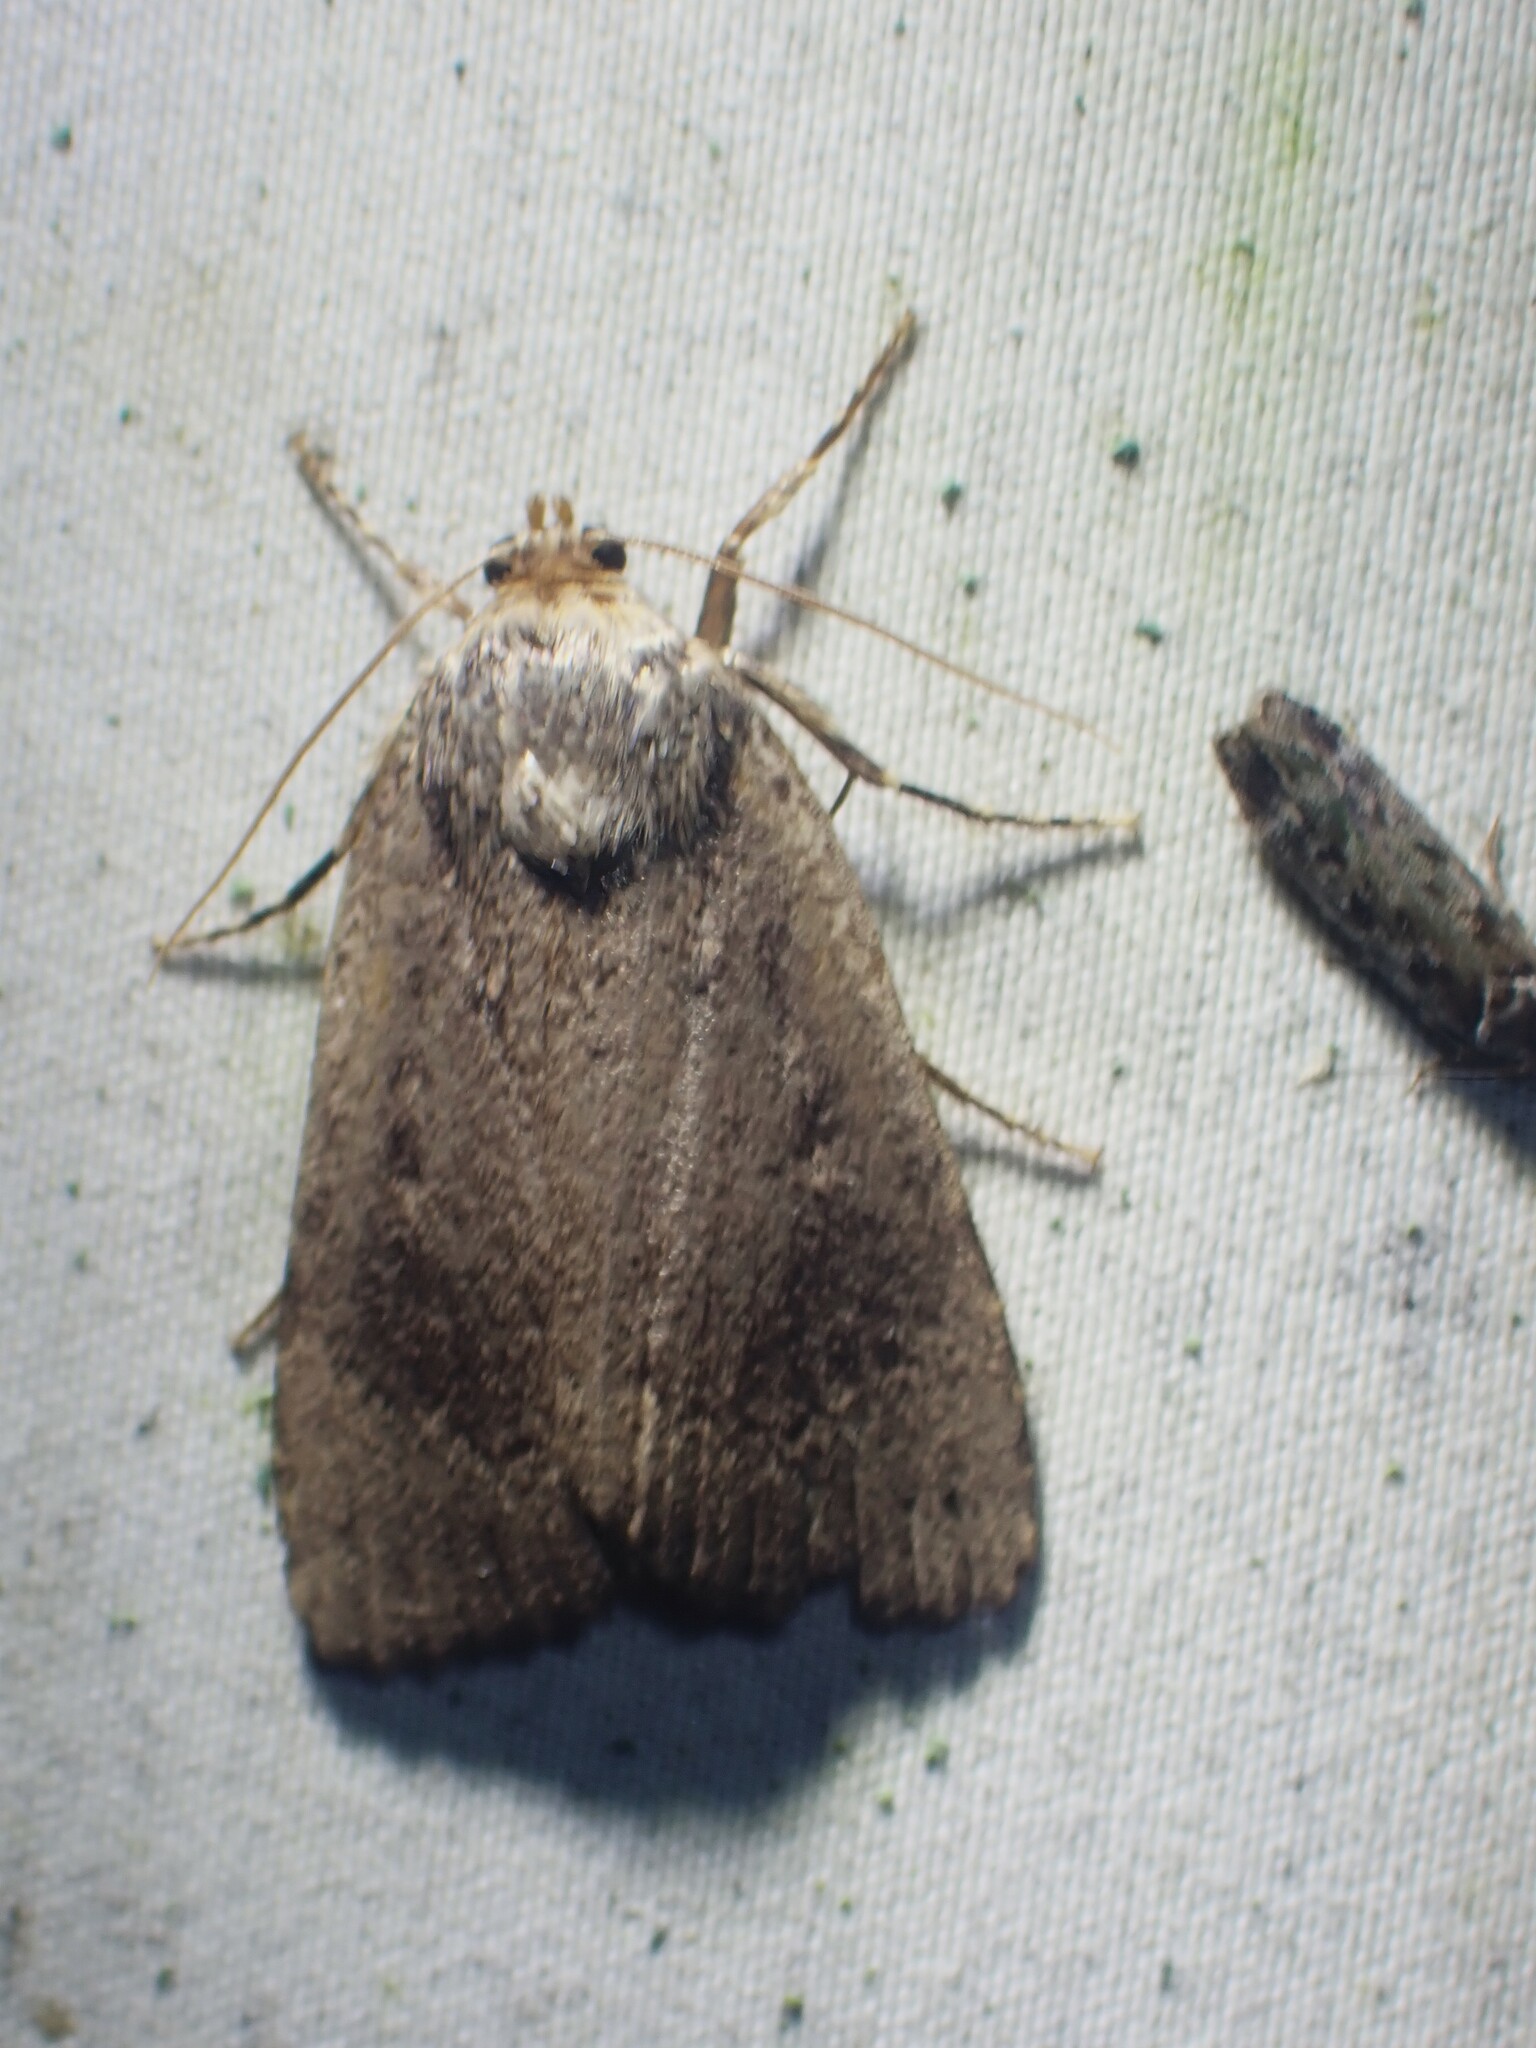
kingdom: Animalia
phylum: Arthropoda
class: Insecta
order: Lepidoptera
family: Noctuidae
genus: Amphipyra
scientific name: Amphipyra pyramidoides
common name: American copper underwing
